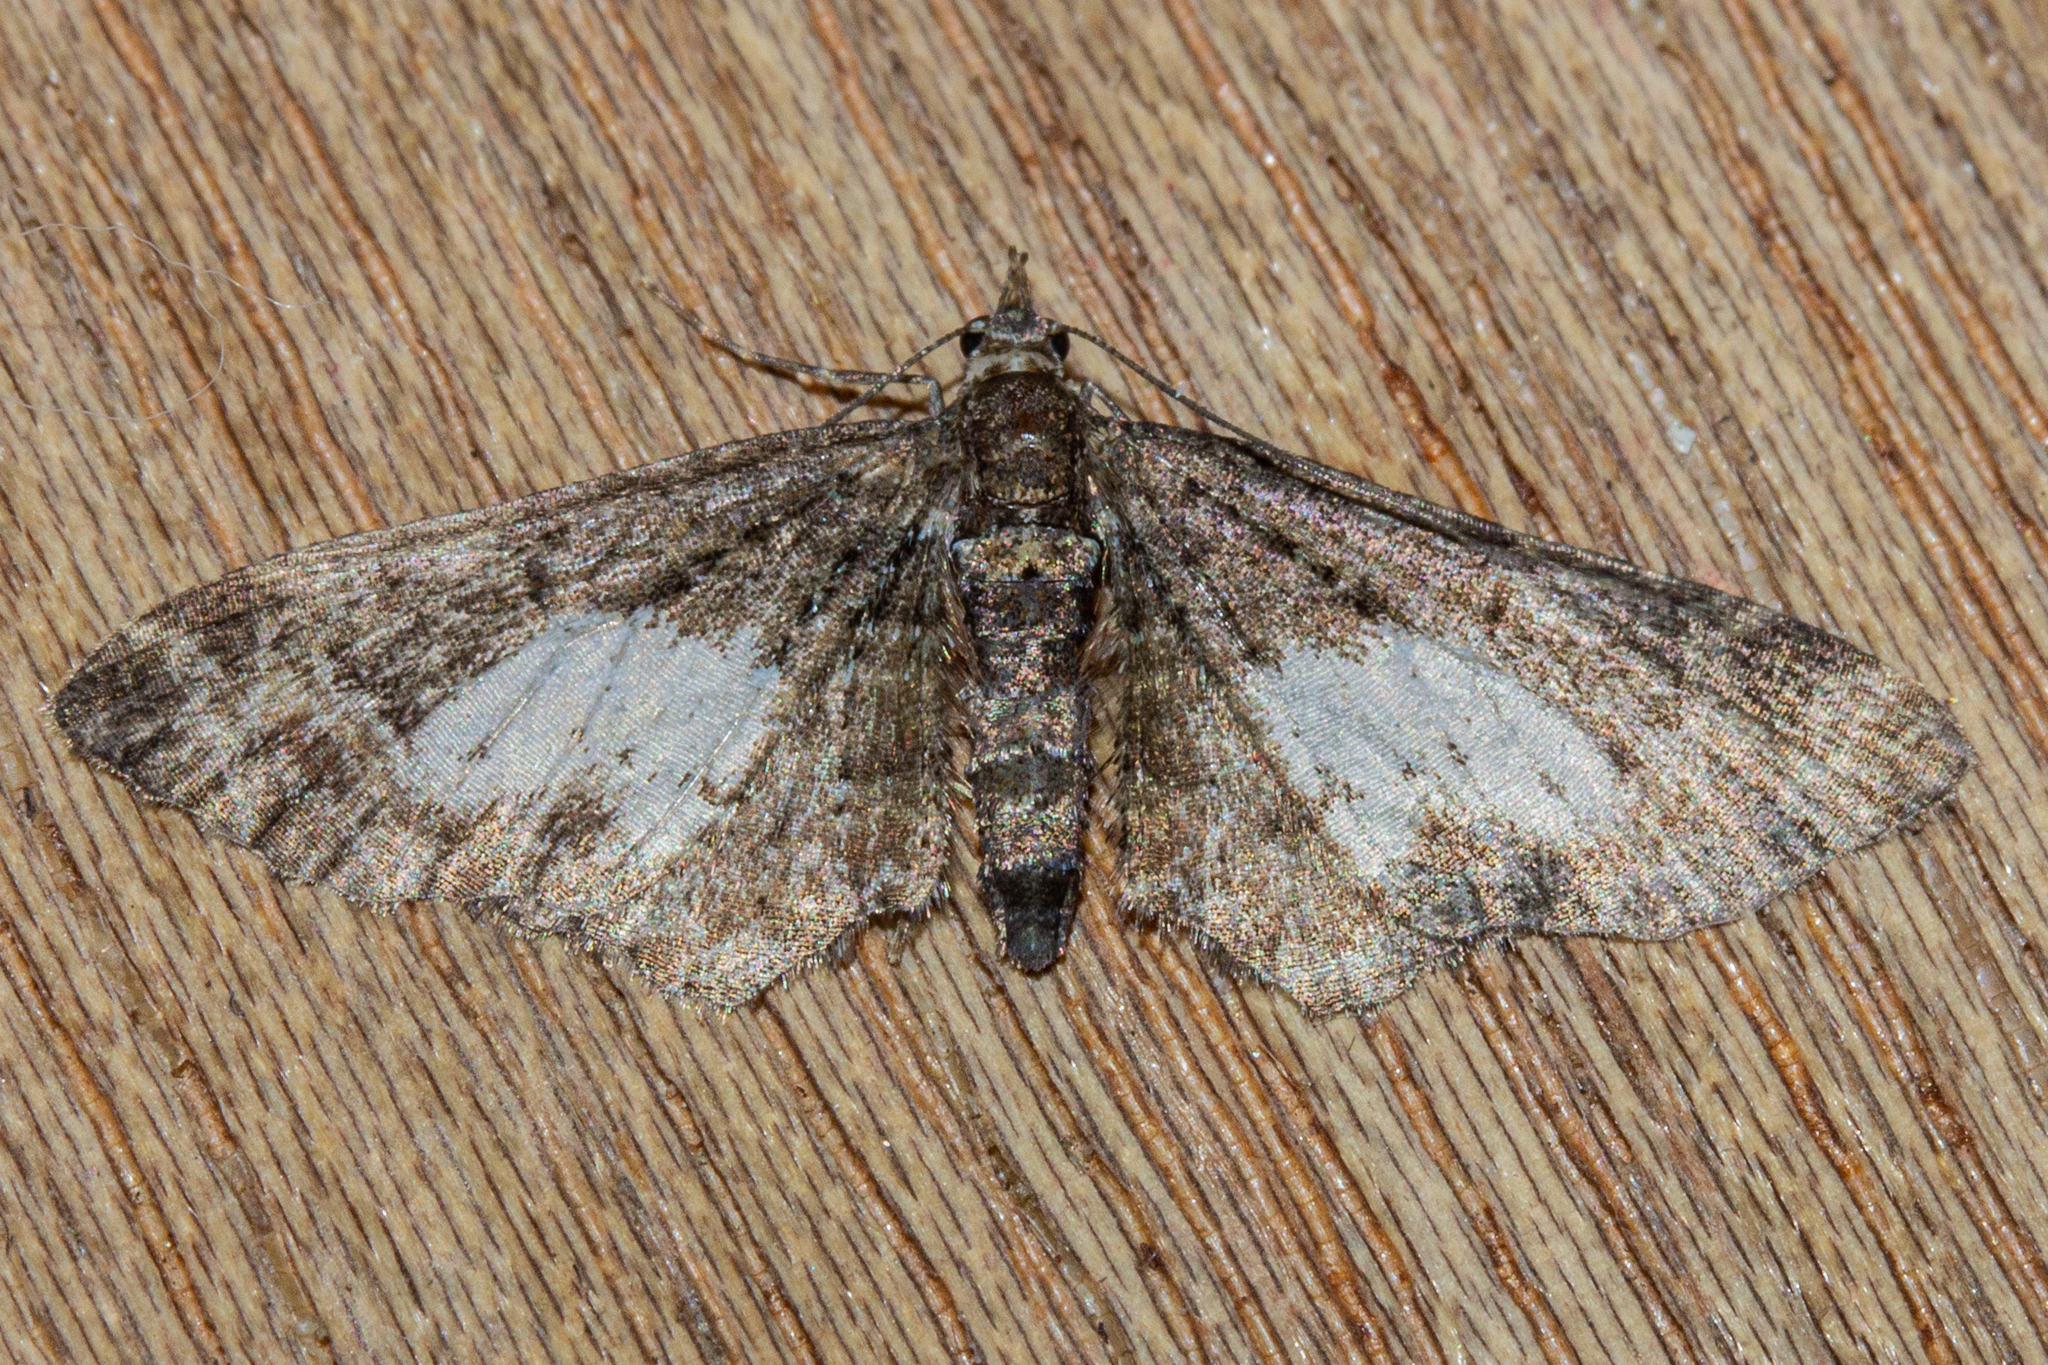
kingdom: Animalia
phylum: Arthropoda
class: Insecta
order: Lepidoptera
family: Geometridae
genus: Idaea
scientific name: Idaea mutanda
